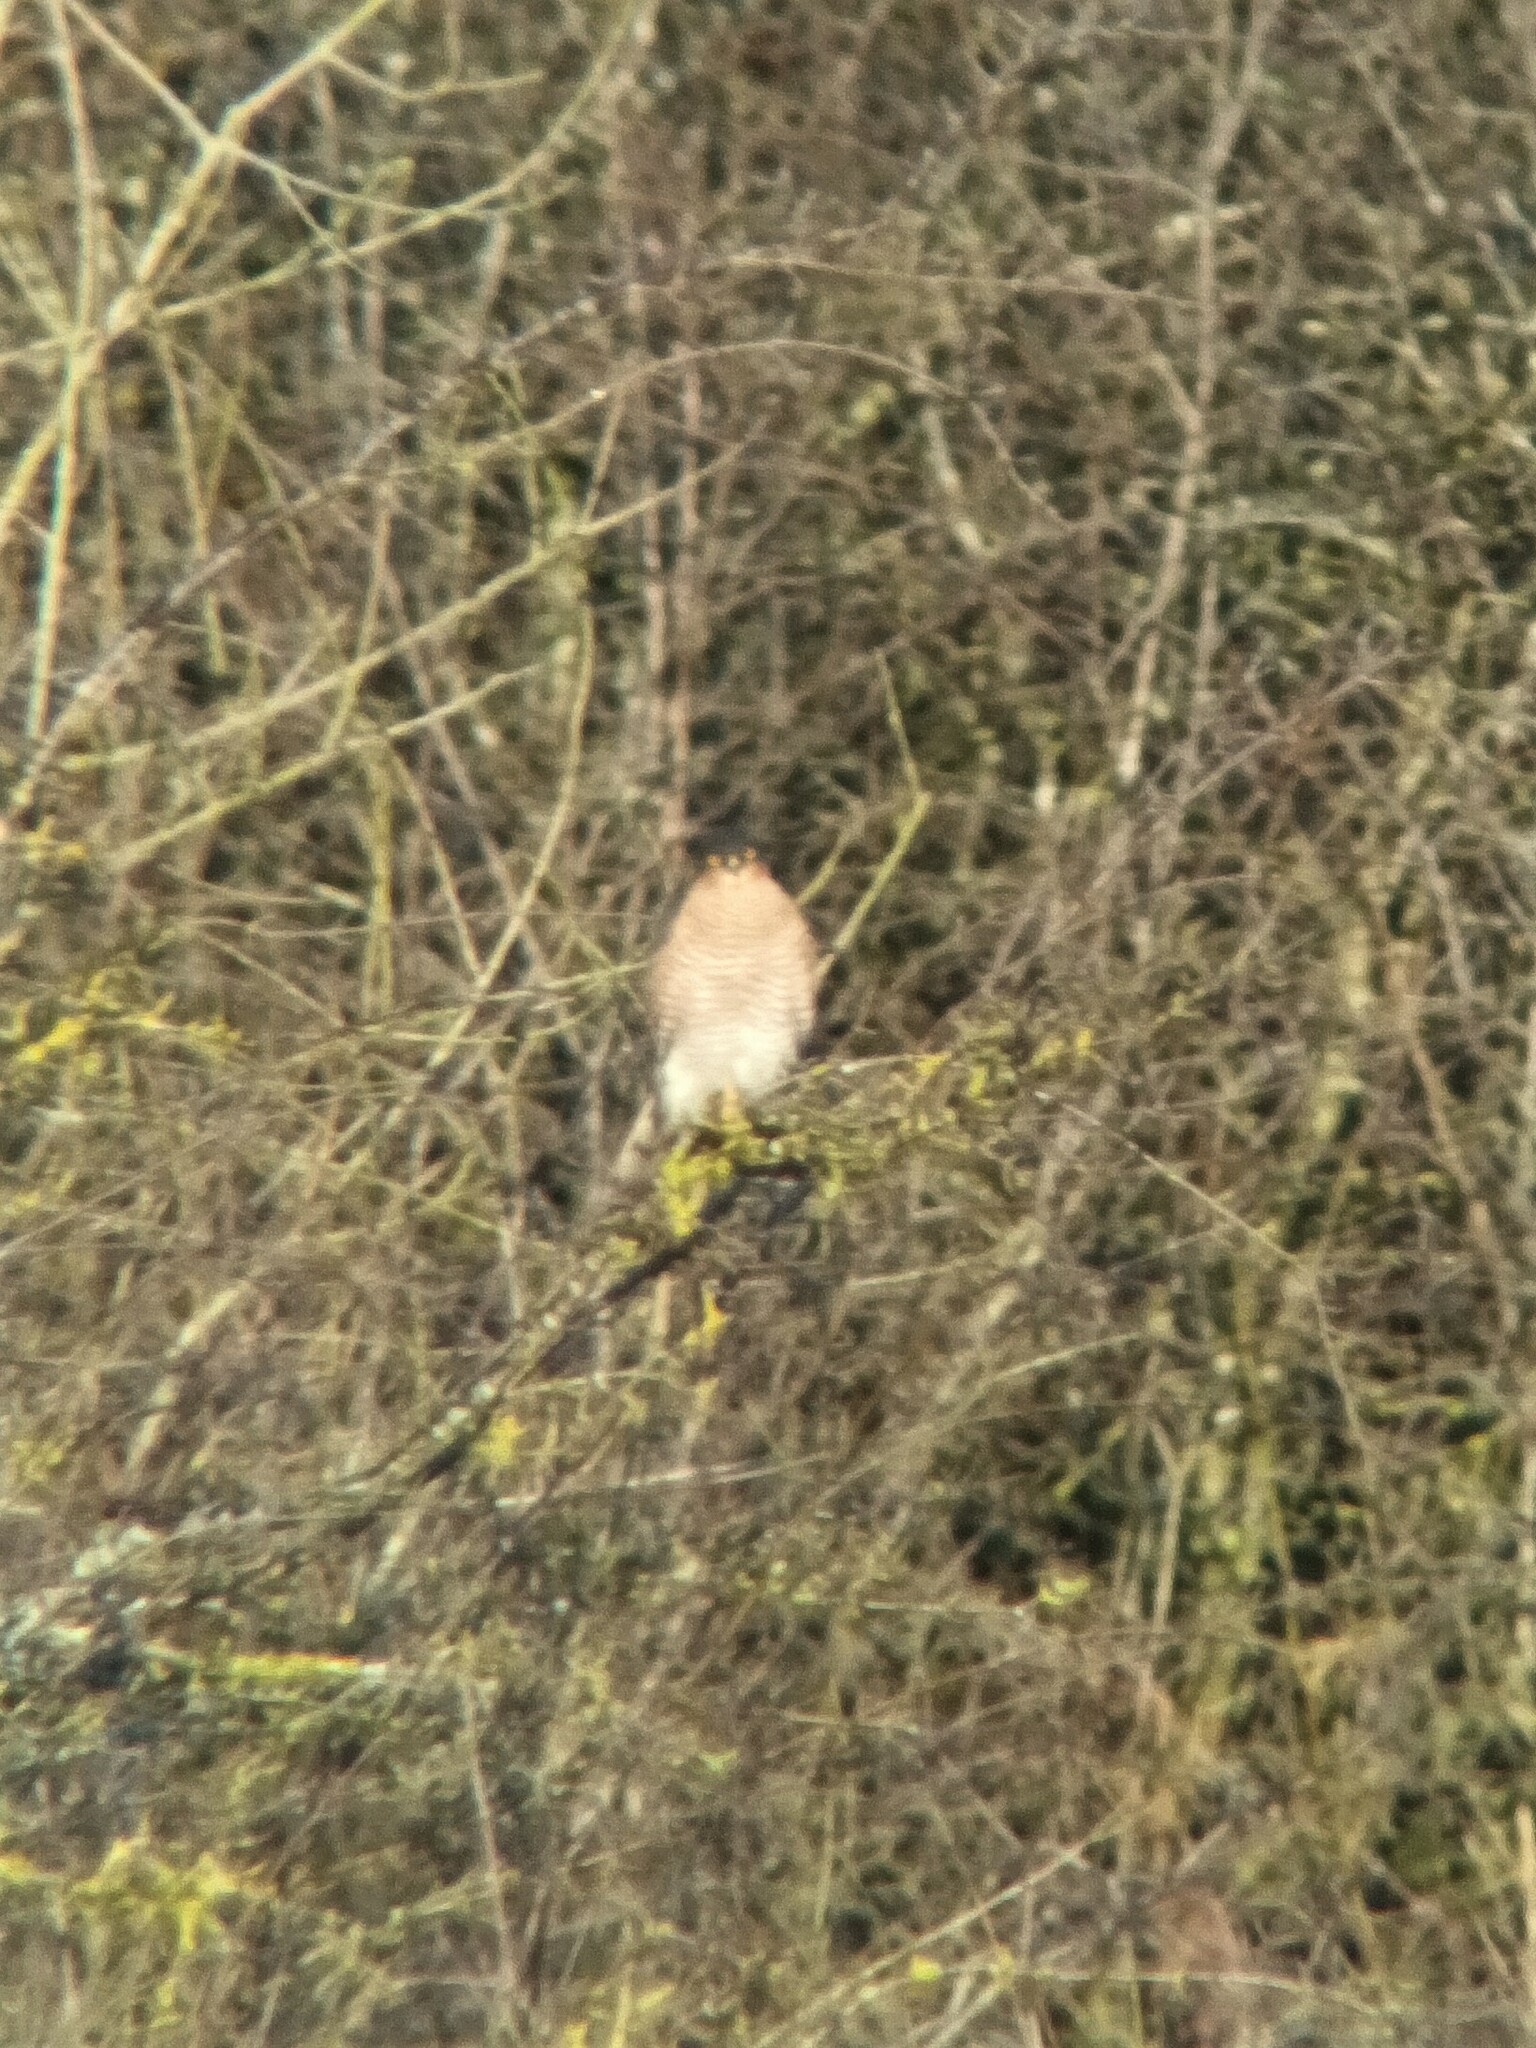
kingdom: Animalia
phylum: Chordata
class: Aves
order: Accipitriformes
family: Accipitridae
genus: Accipiter
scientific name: Accipiter nisus
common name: Eurasian sparrowhawk
